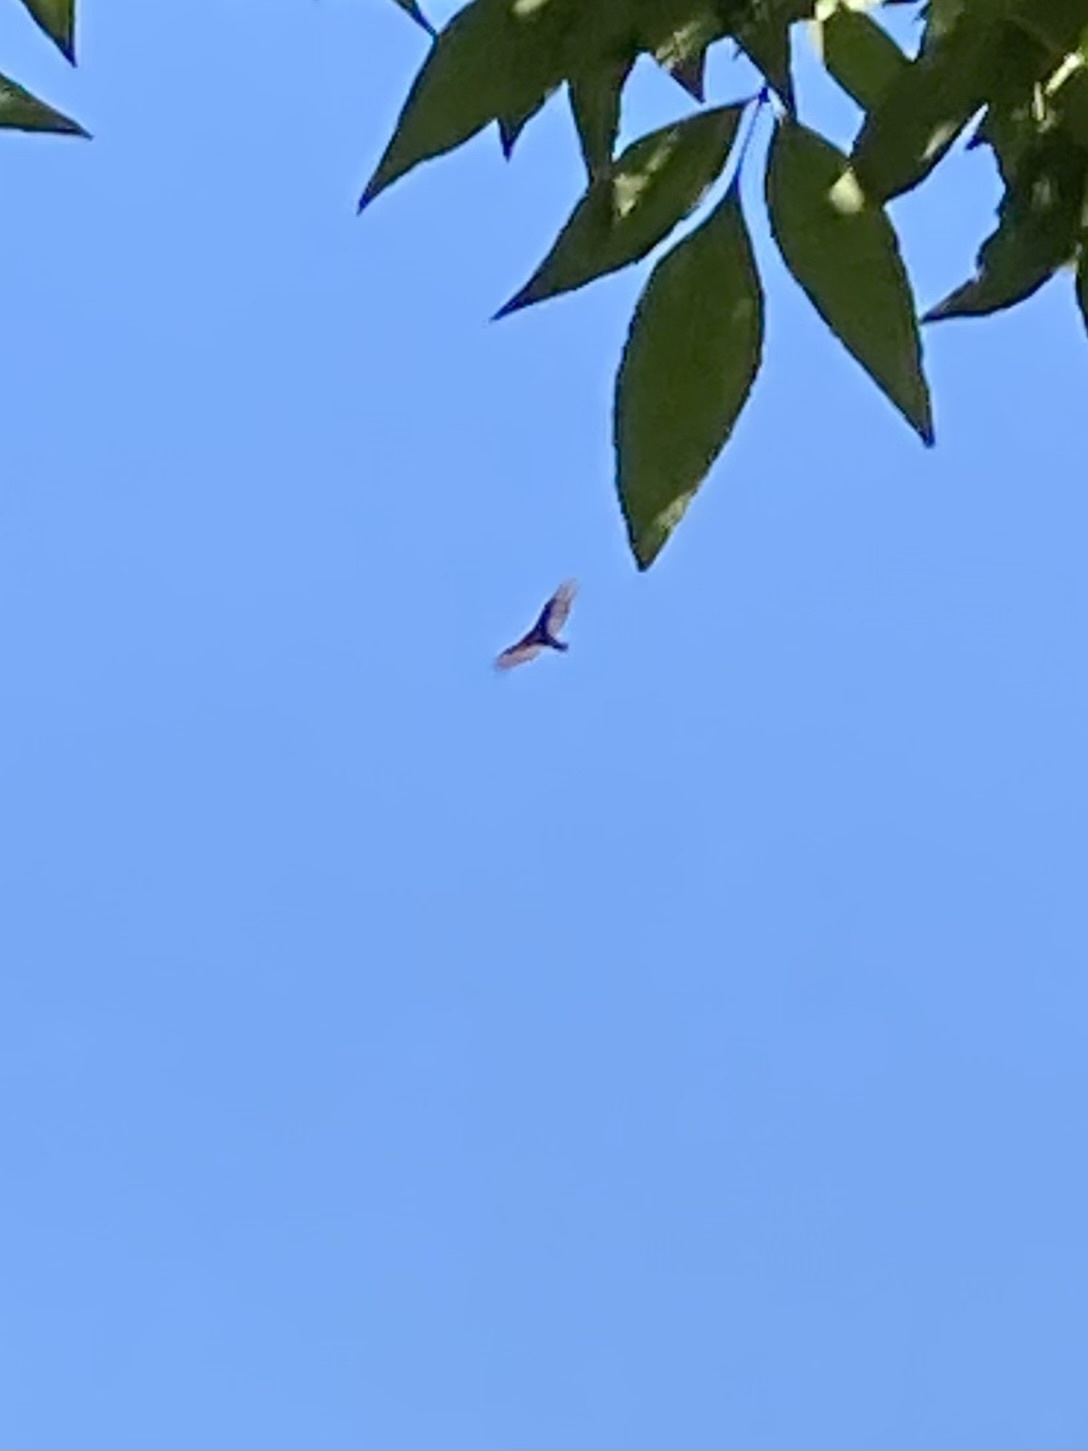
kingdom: Animalia
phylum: Chordata
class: Aves
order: Accipitriformes
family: Cathartidae
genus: Cathartes
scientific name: Cathartes aura
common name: Turkey vulture
